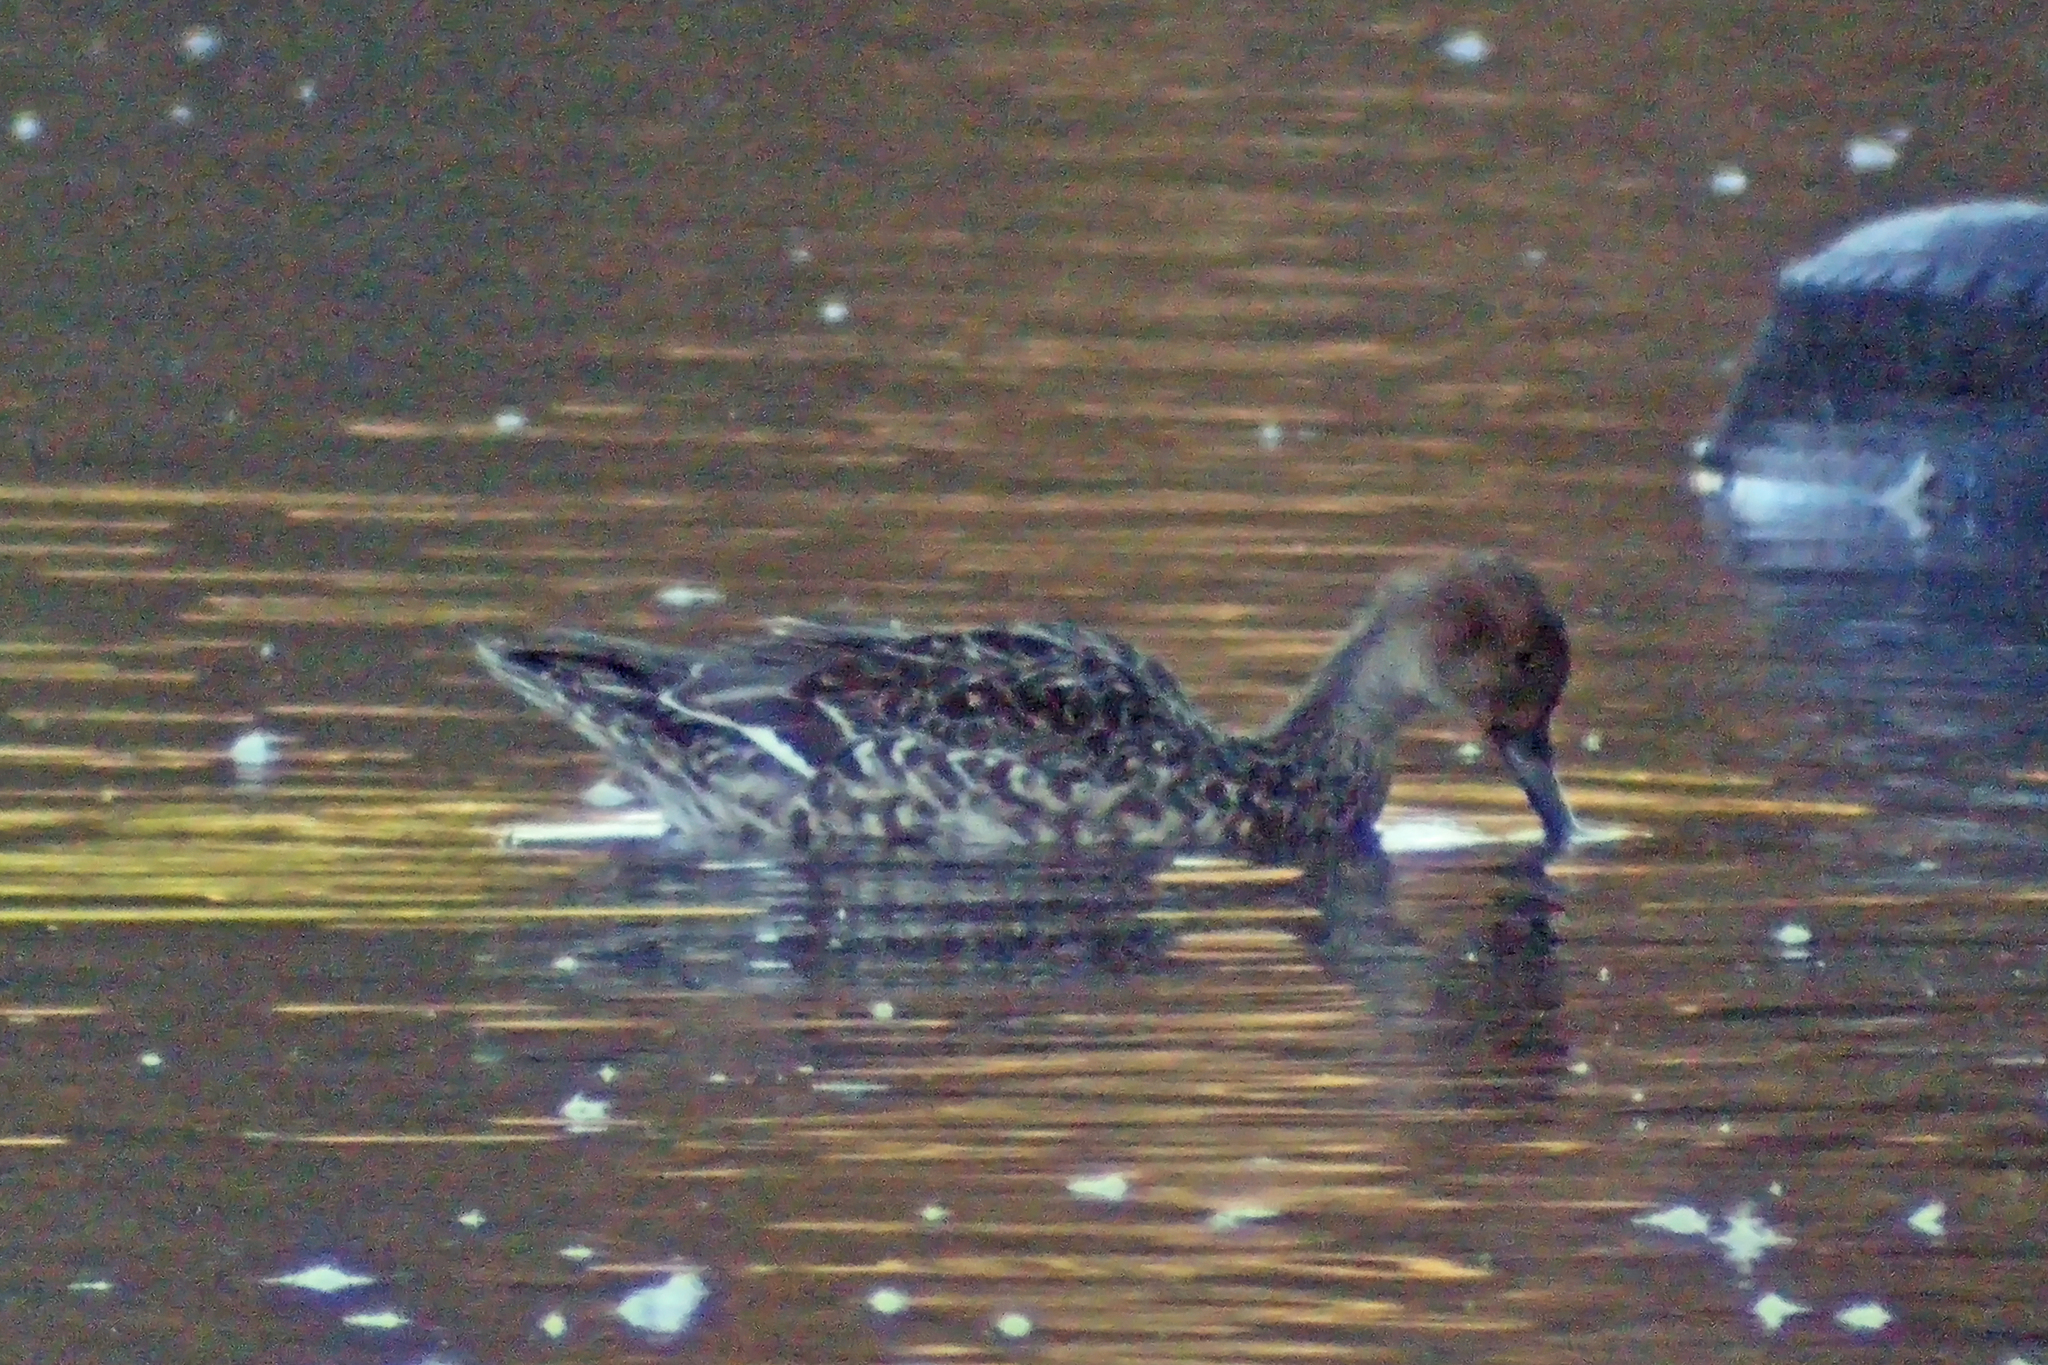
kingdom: Animalia
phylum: Chordata
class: Aves
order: Anseriformes
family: Anatidae
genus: Anas
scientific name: Anas acuta
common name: Northern pintail
